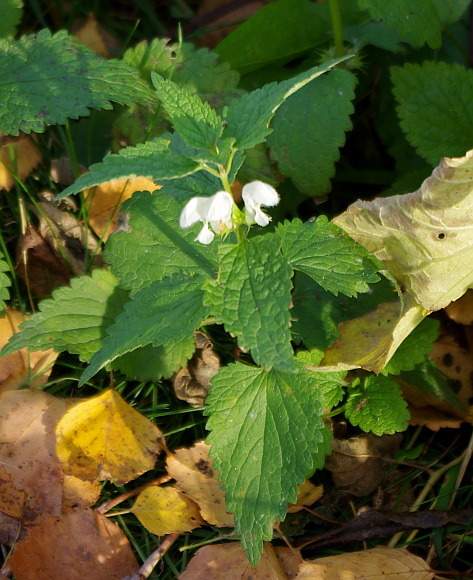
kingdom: Plantae
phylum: Tracheophyta
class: Magnoliopsida
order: Lamiales
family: Lamiaceae
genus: Lamium
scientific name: Lamium album
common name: White dead-nettle
